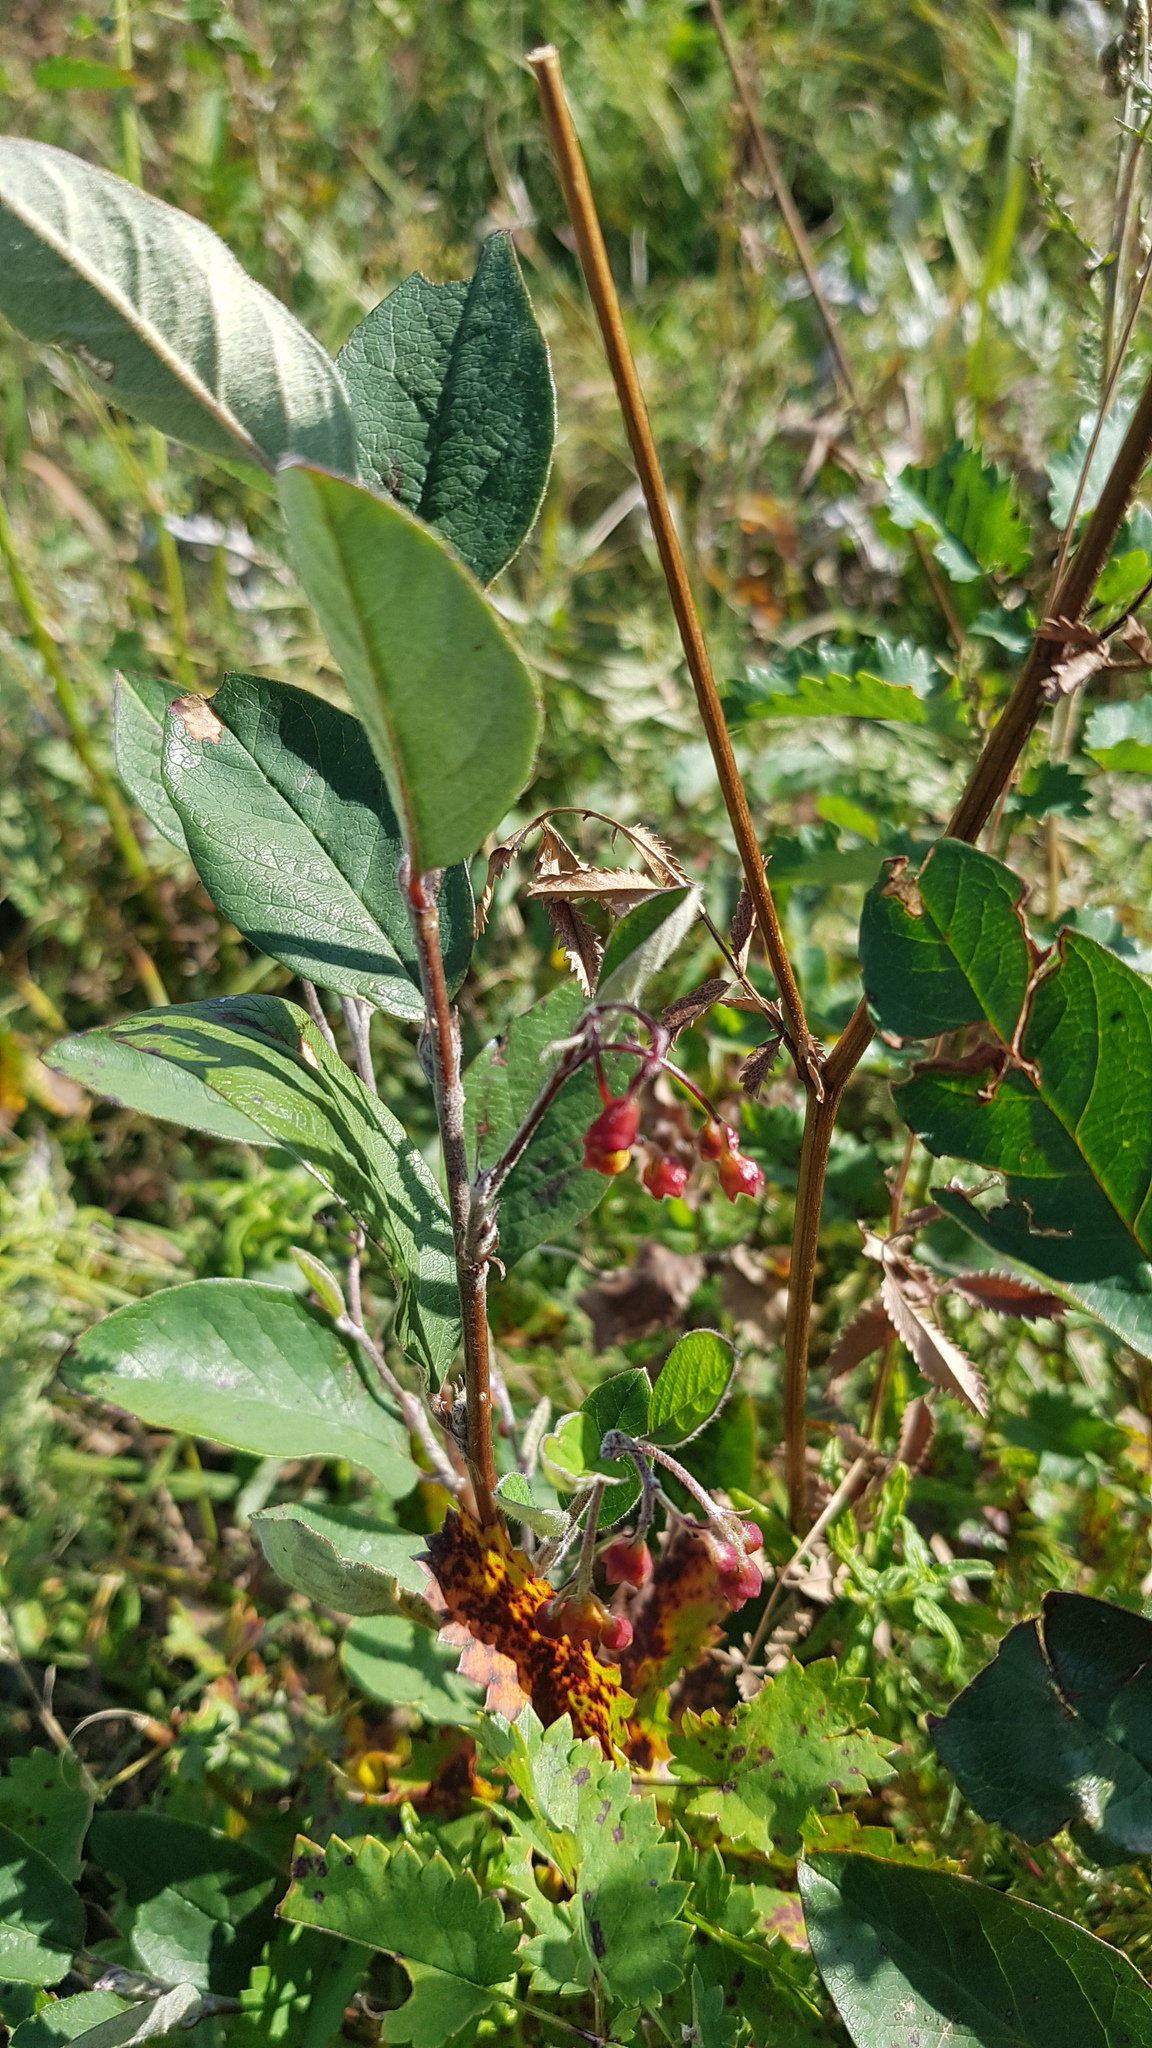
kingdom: Plantae
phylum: Tracheophyta
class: Magnoliopsida
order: Rosales
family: Rosaceae
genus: Cotoneaster
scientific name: Cotoneaster mongolicus
